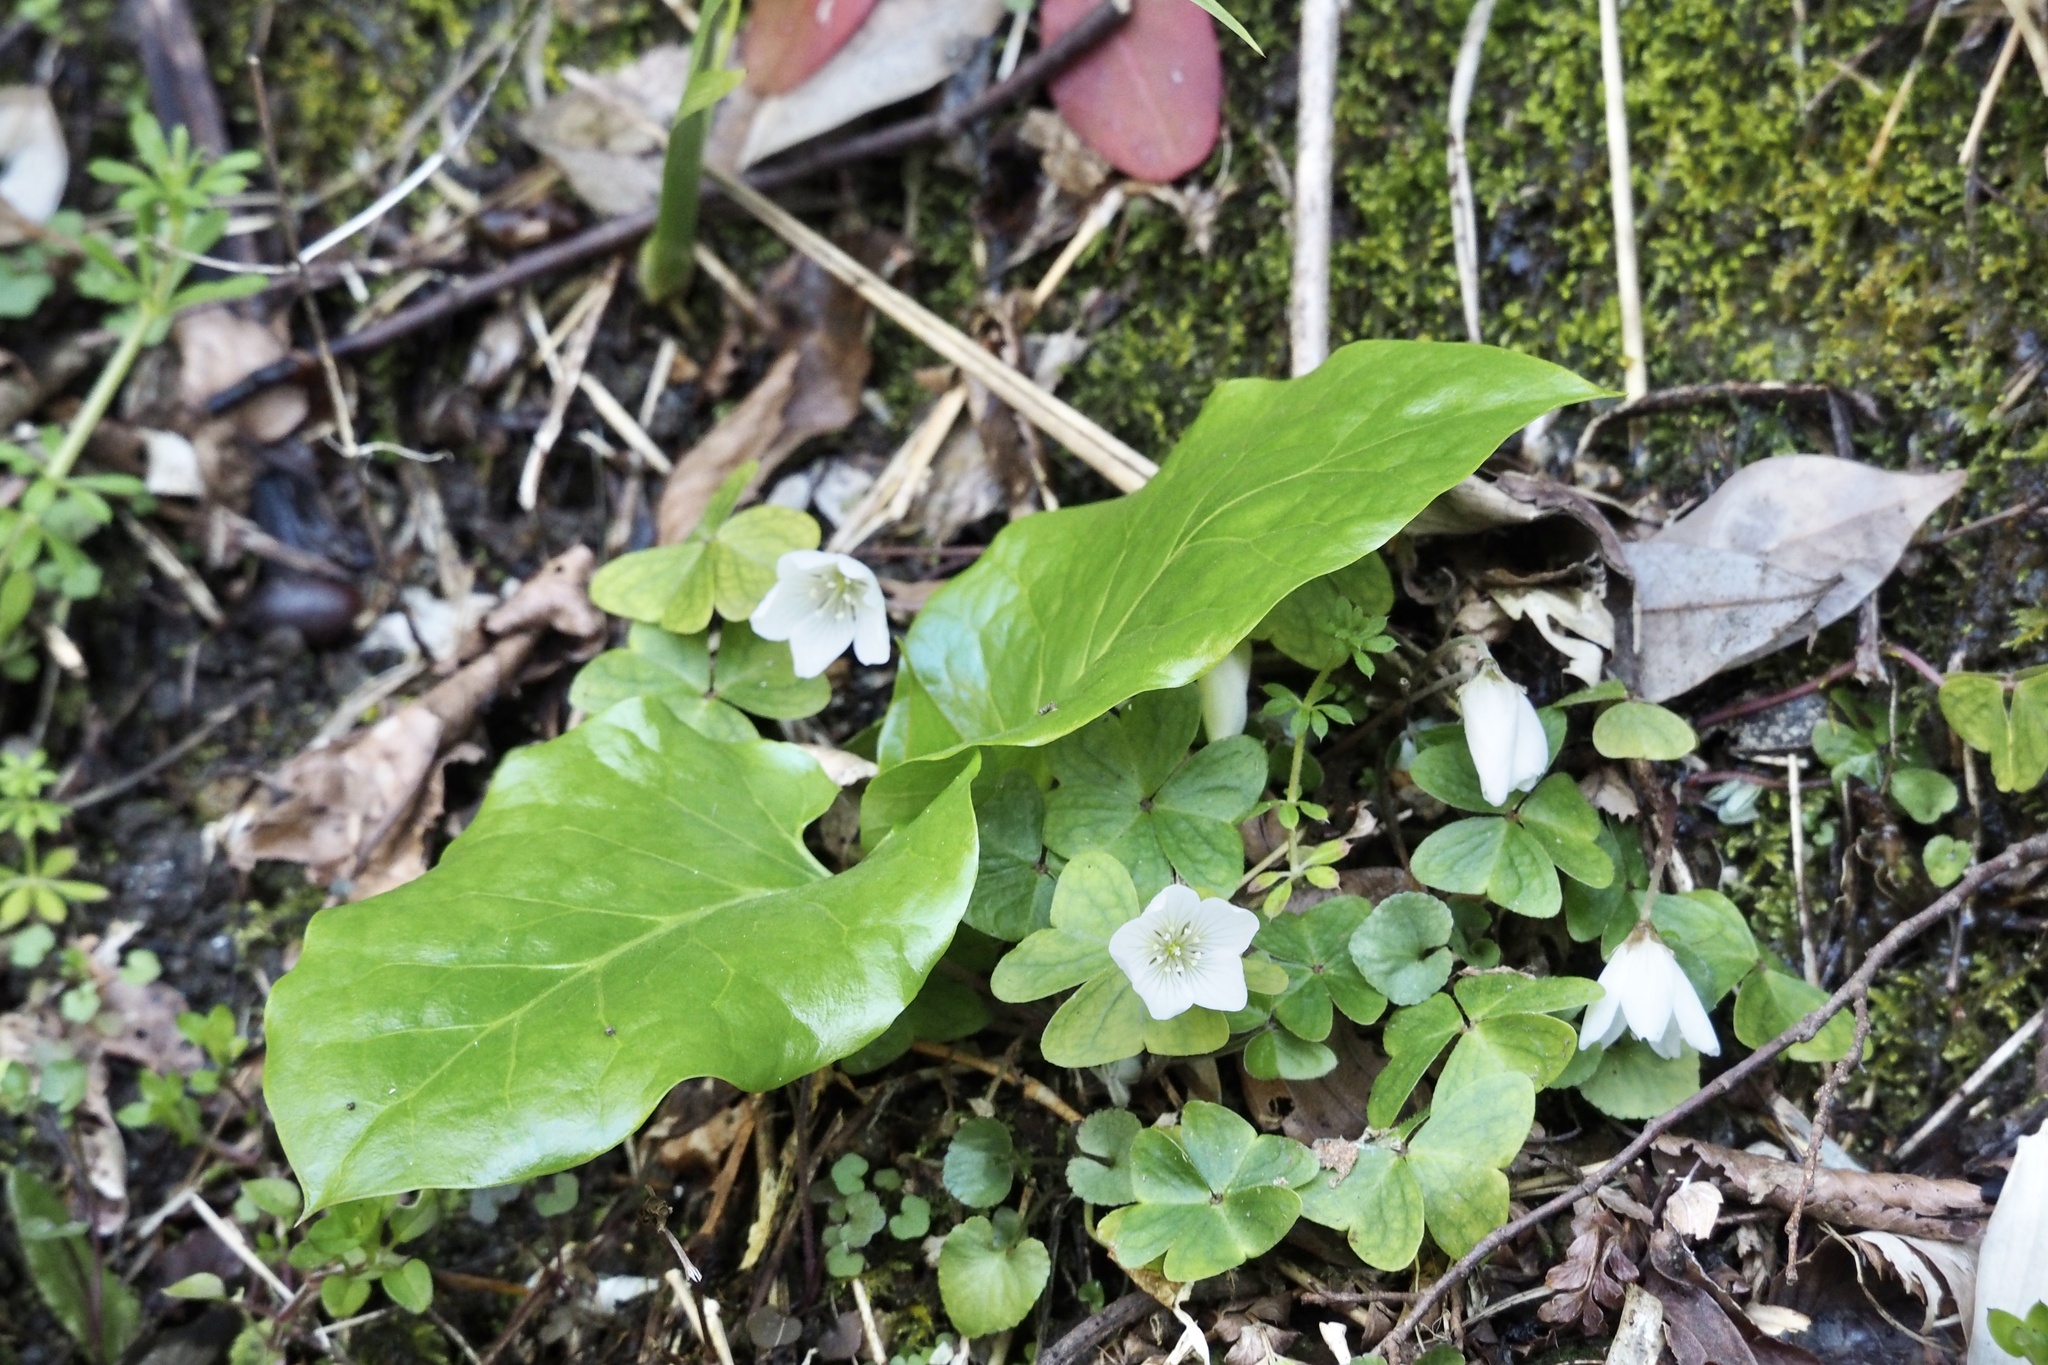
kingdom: Plantae
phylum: Tracheophyta
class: Magnoliopsida
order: Oxalidales
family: Oxalidaceae
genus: Oxalis
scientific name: Oxalis nipponica
